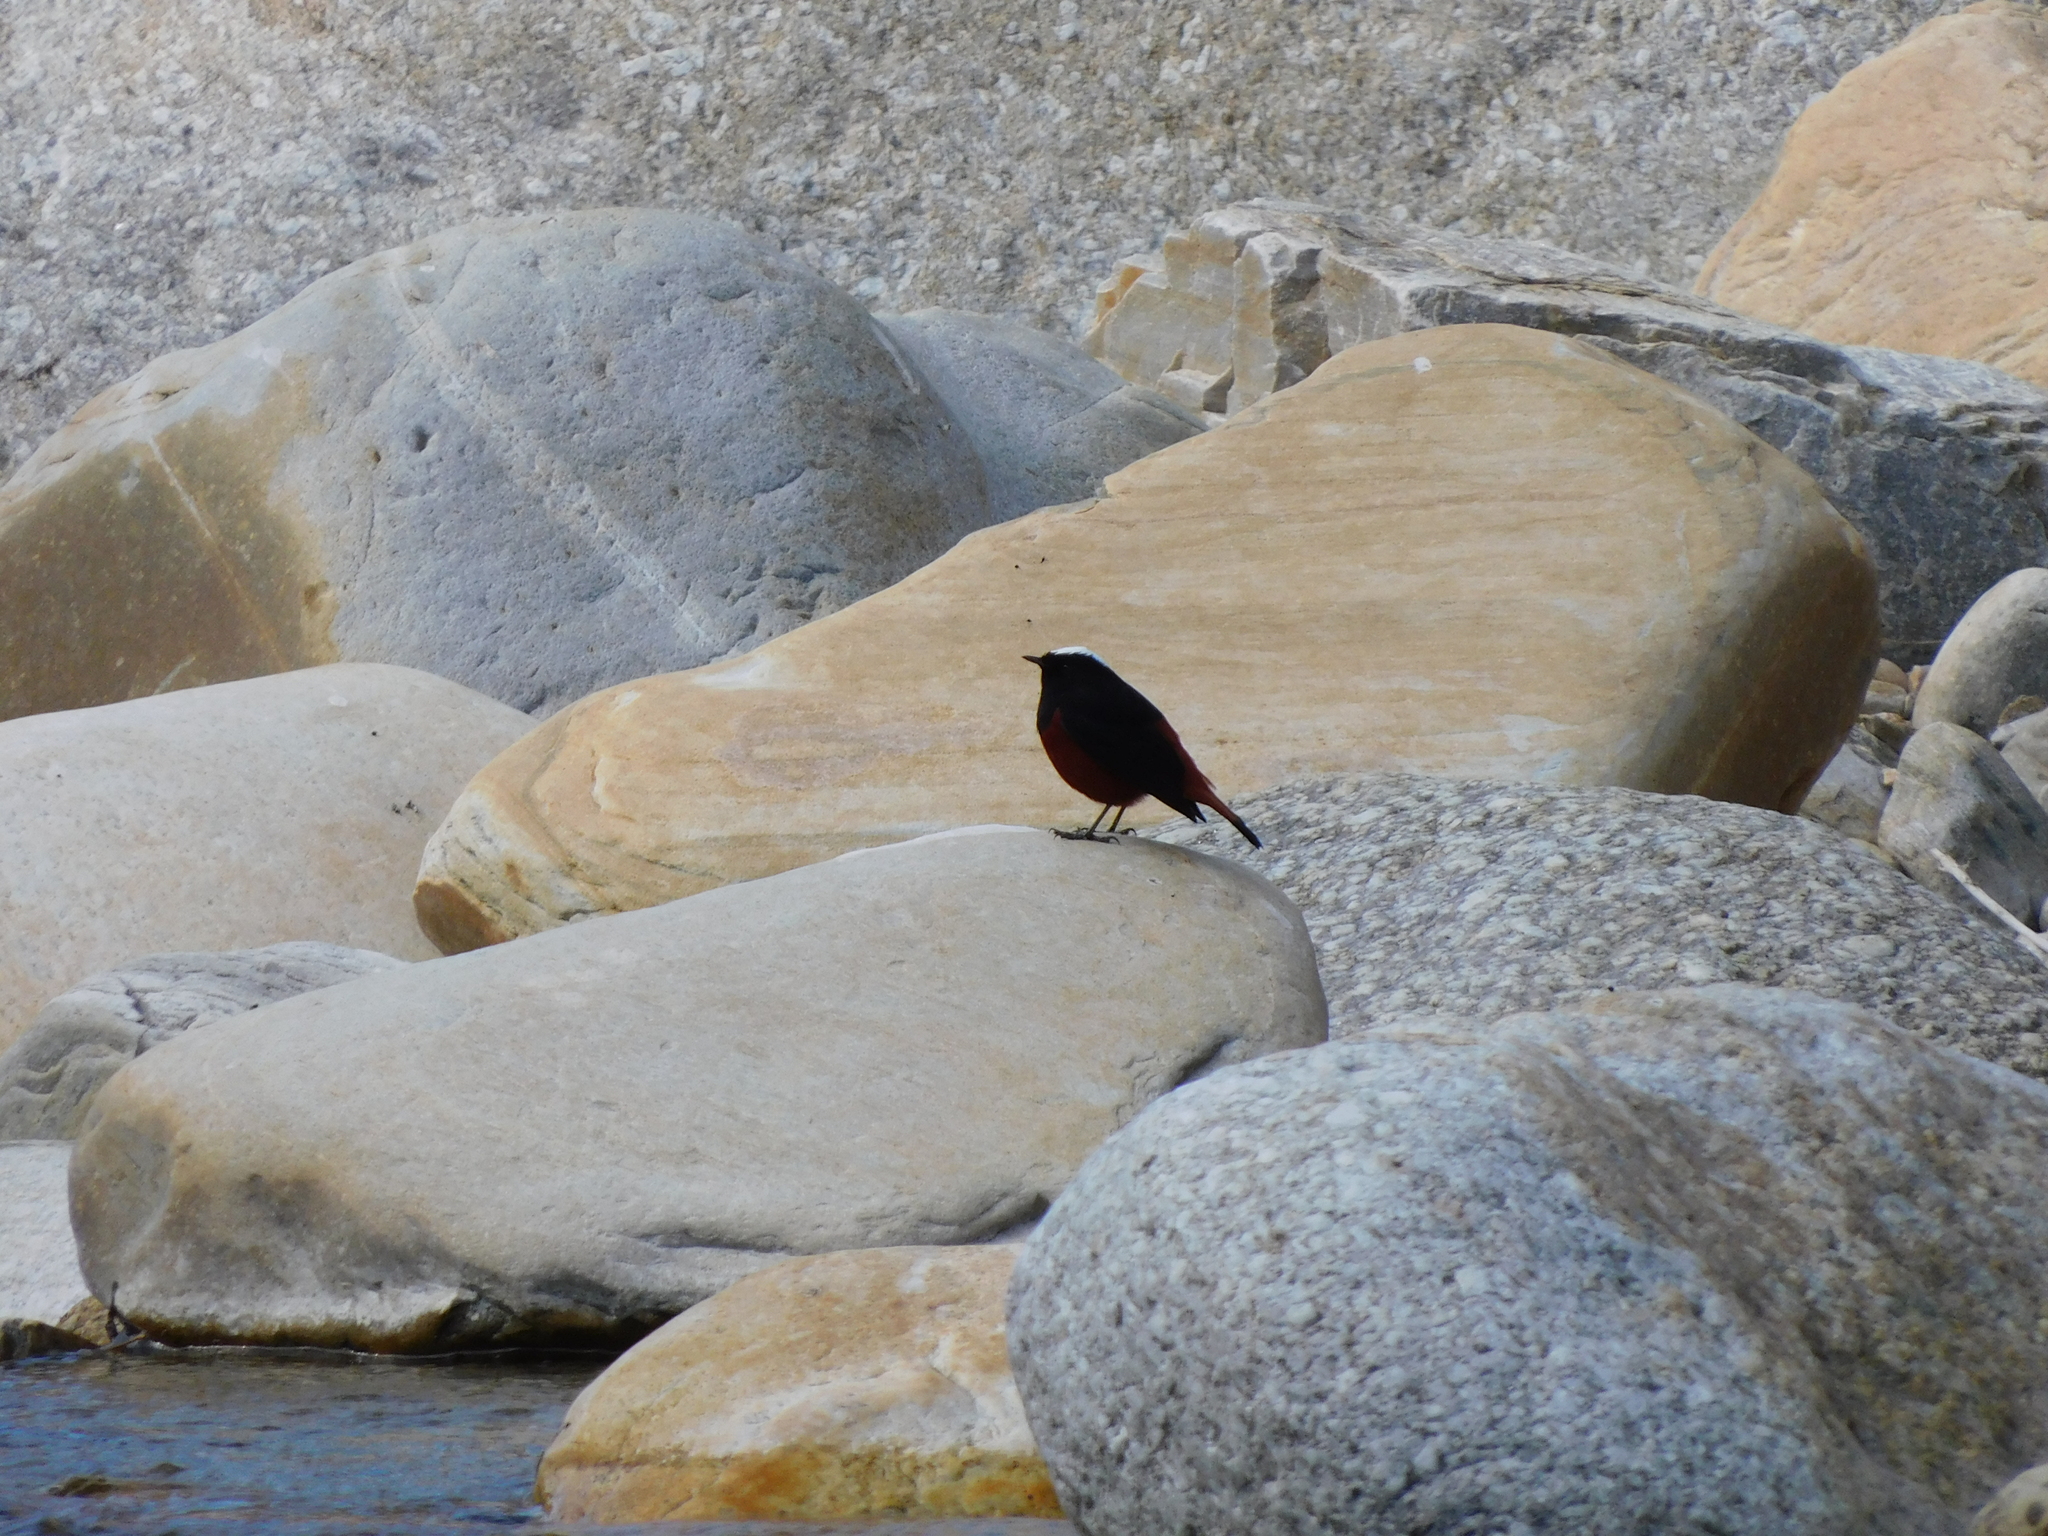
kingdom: Animalia
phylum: Chordata
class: Aves
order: Passeriformes
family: Muscicapidae
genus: Chaimarrornis
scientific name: Chaimarrornis leucocephalus
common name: White-capped redstart
